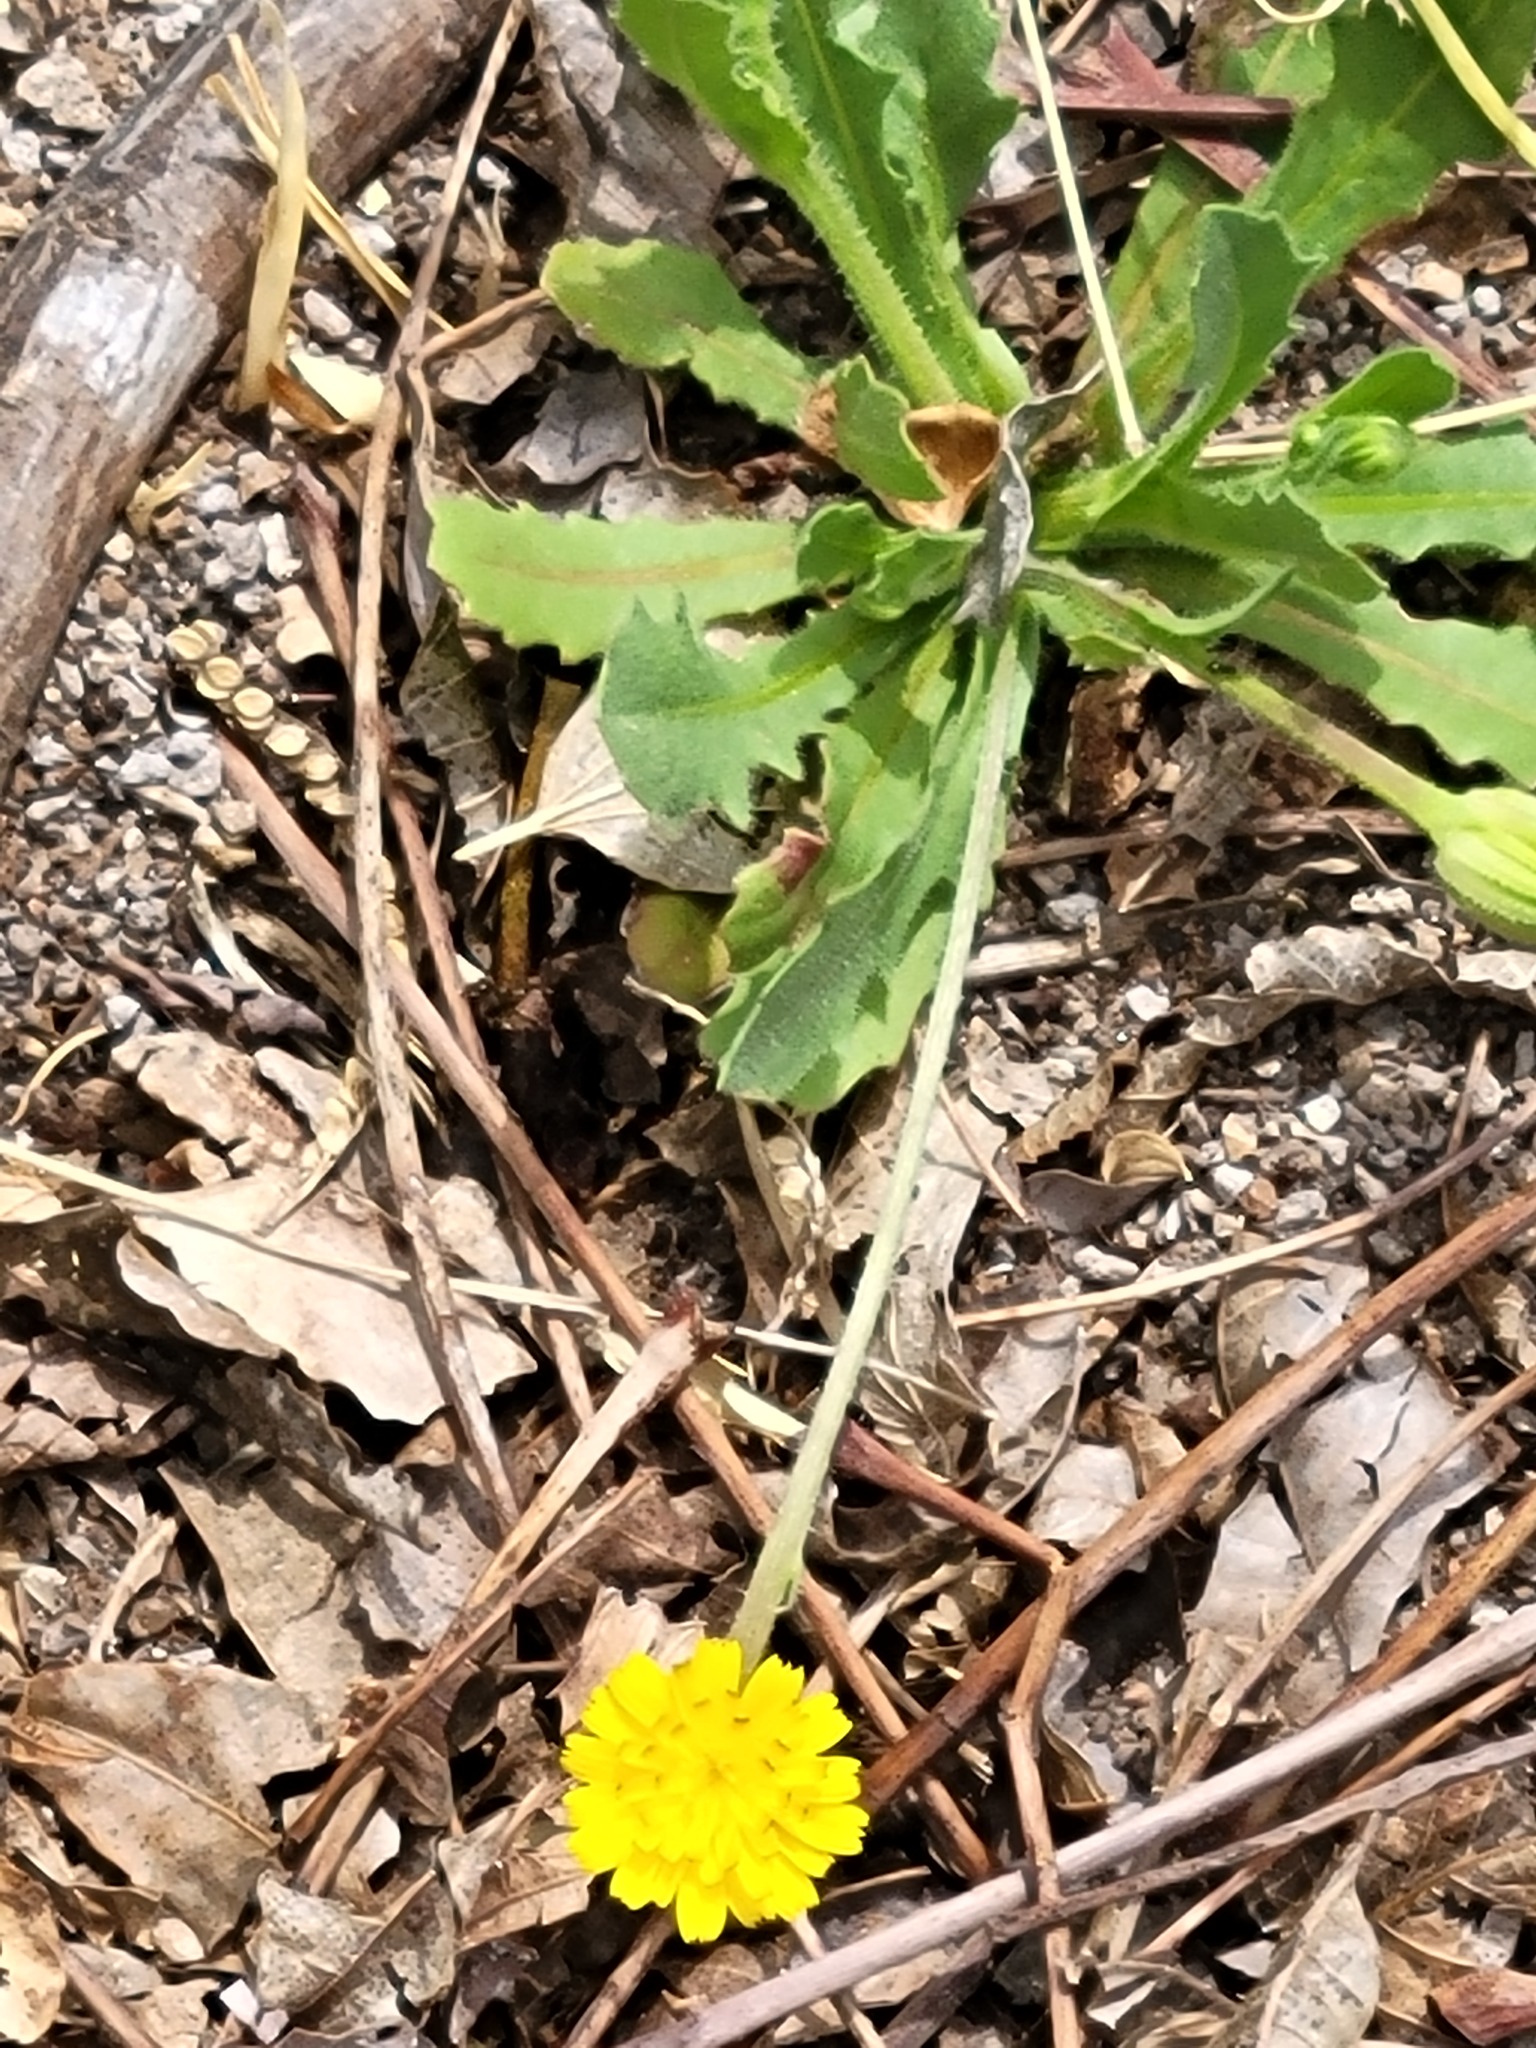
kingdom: Plantae
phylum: Tracheophyta
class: Magnoliopsida
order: Asterales
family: Asteraceae
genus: Hedypnois
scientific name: Hedypnois rhagadioloides
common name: Cretan weed
